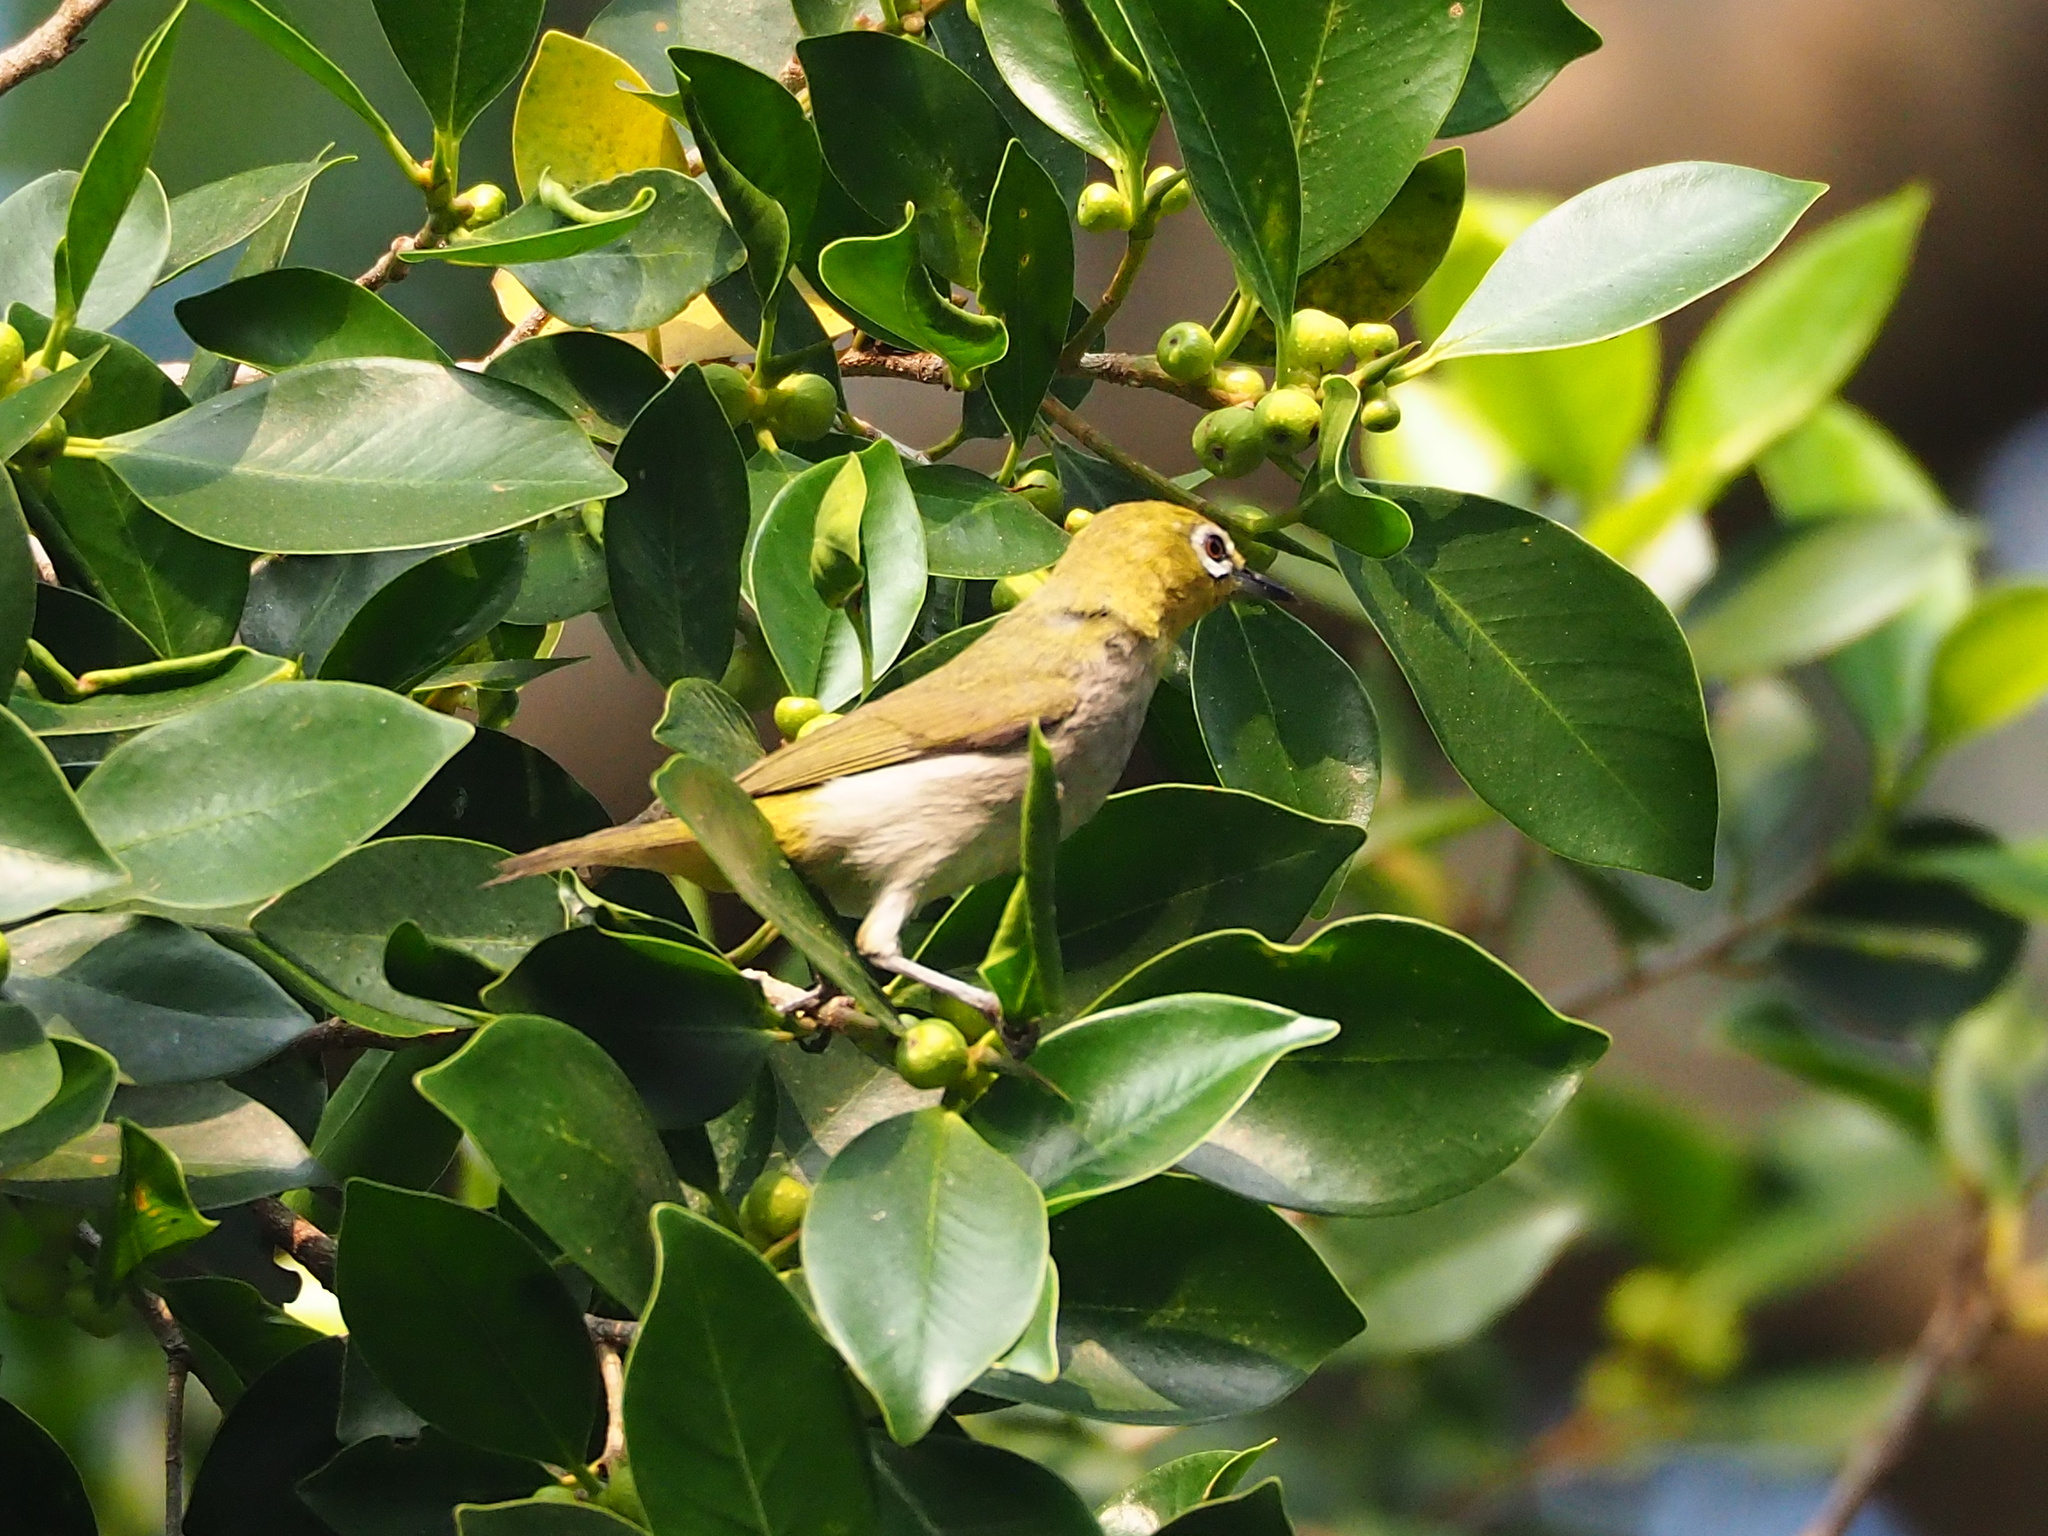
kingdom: Animalia
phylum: Chordata
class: Aves
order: Passeriformes
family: Zosteropidae
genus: Zosterops
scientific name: Zosterops simplex
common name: Swinhoe's white-eye
